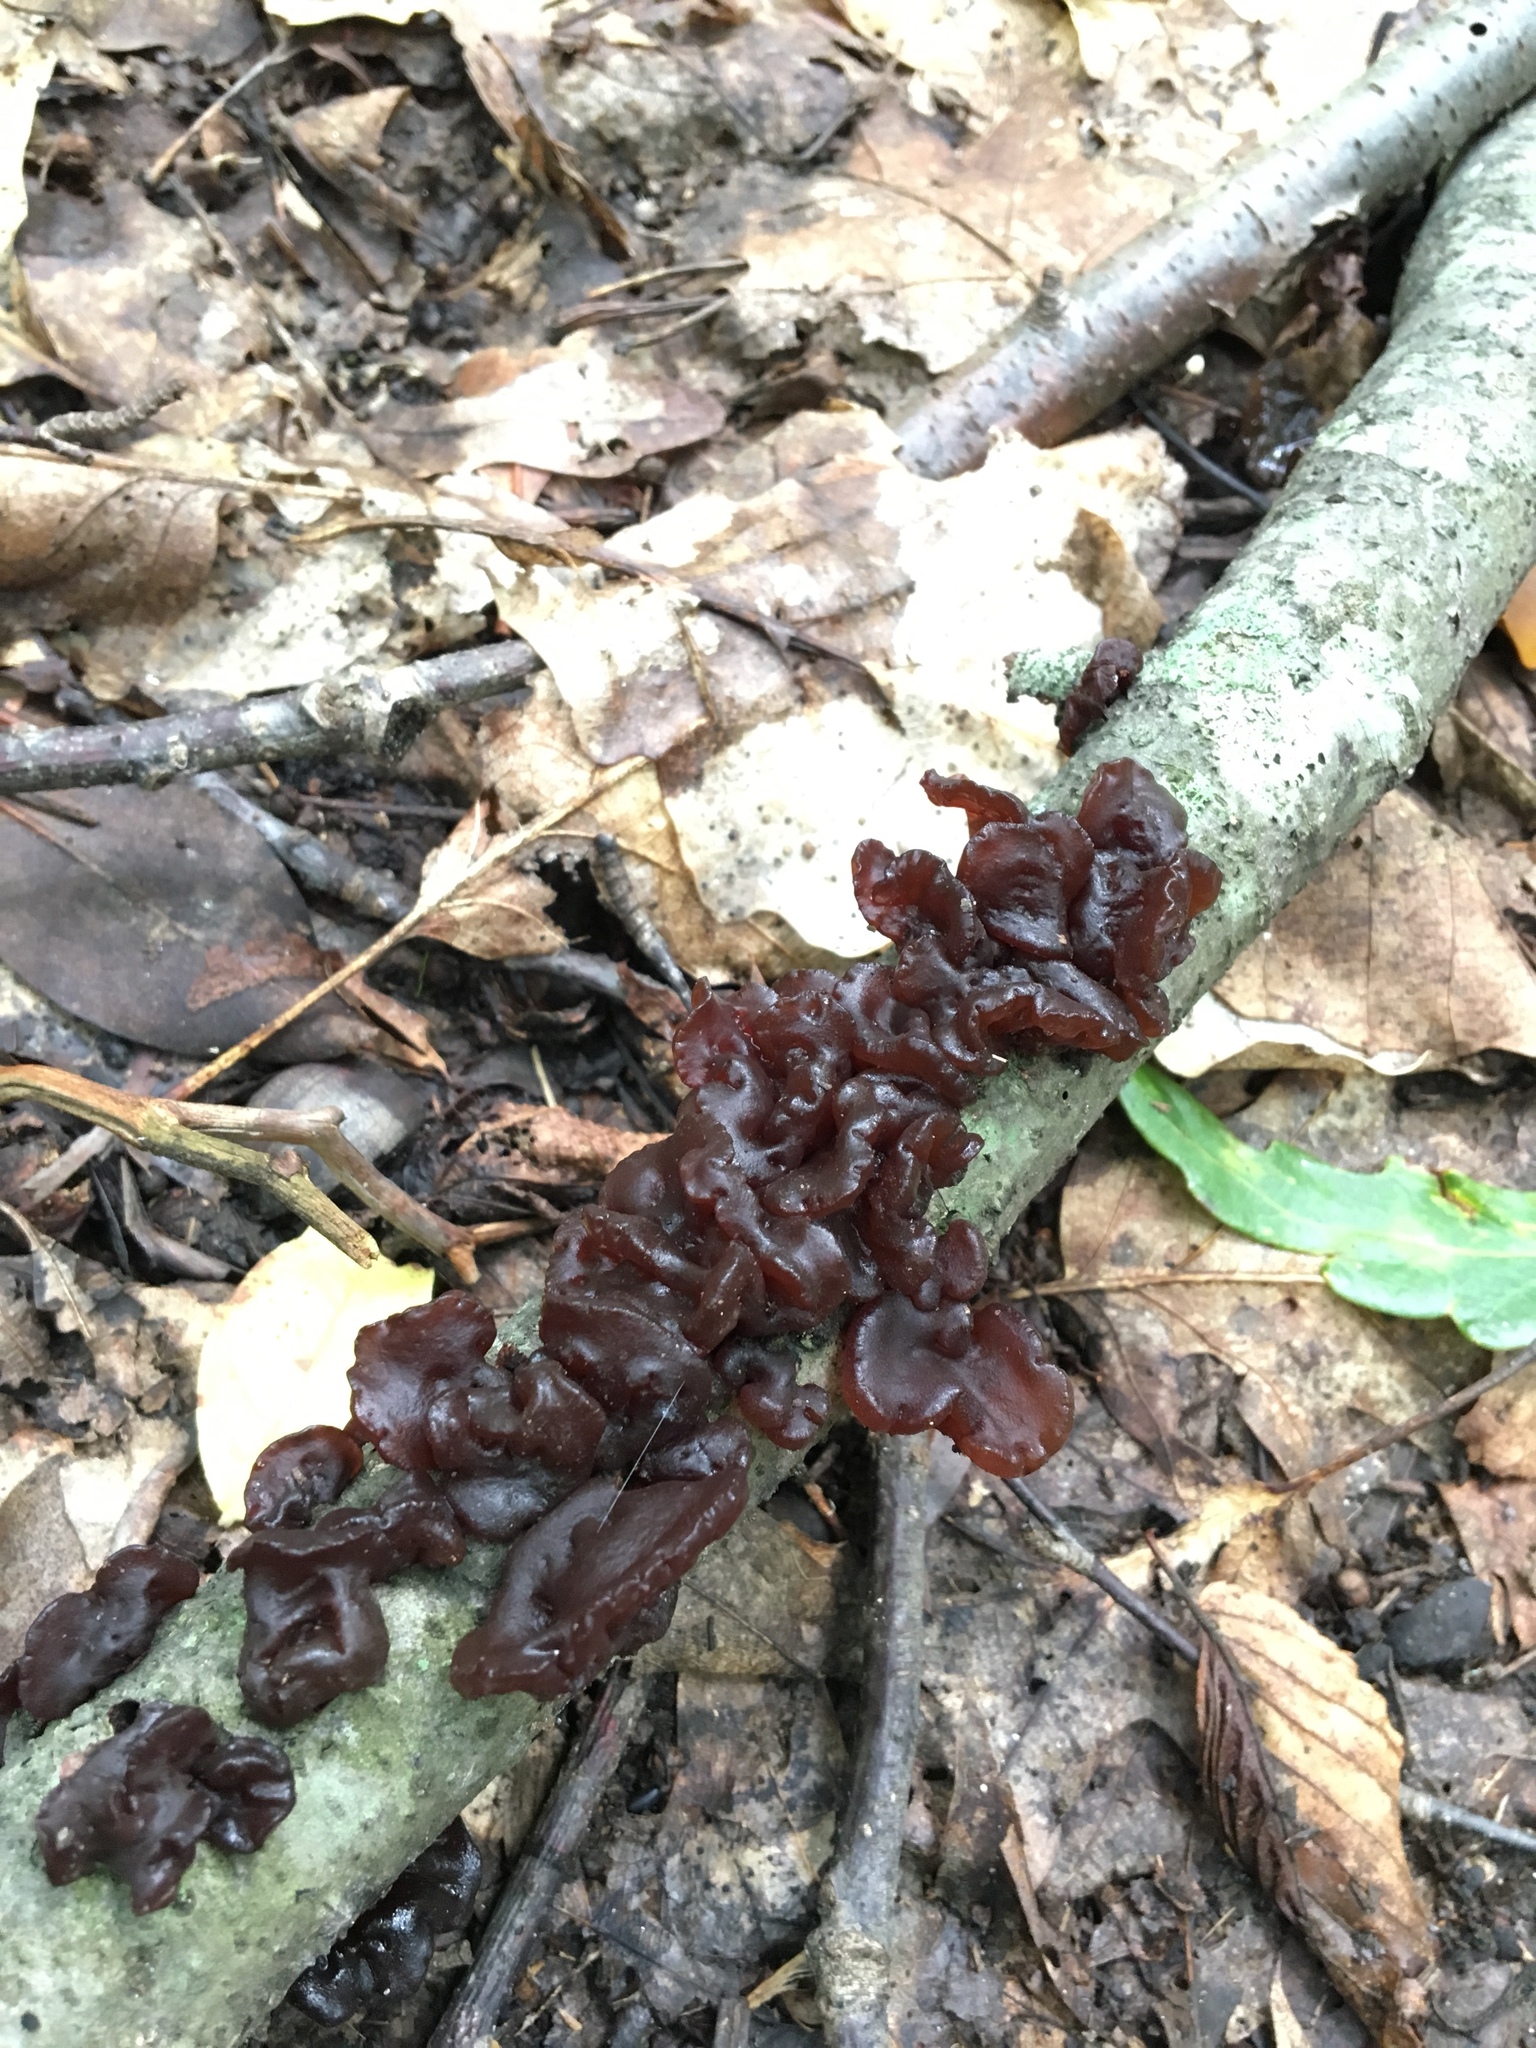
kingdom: Fungi
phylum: Basidiomycota
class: Agaricomycetes
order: Auriculariales
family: Auriculariaceae
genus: Exidia
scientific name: Exidia
